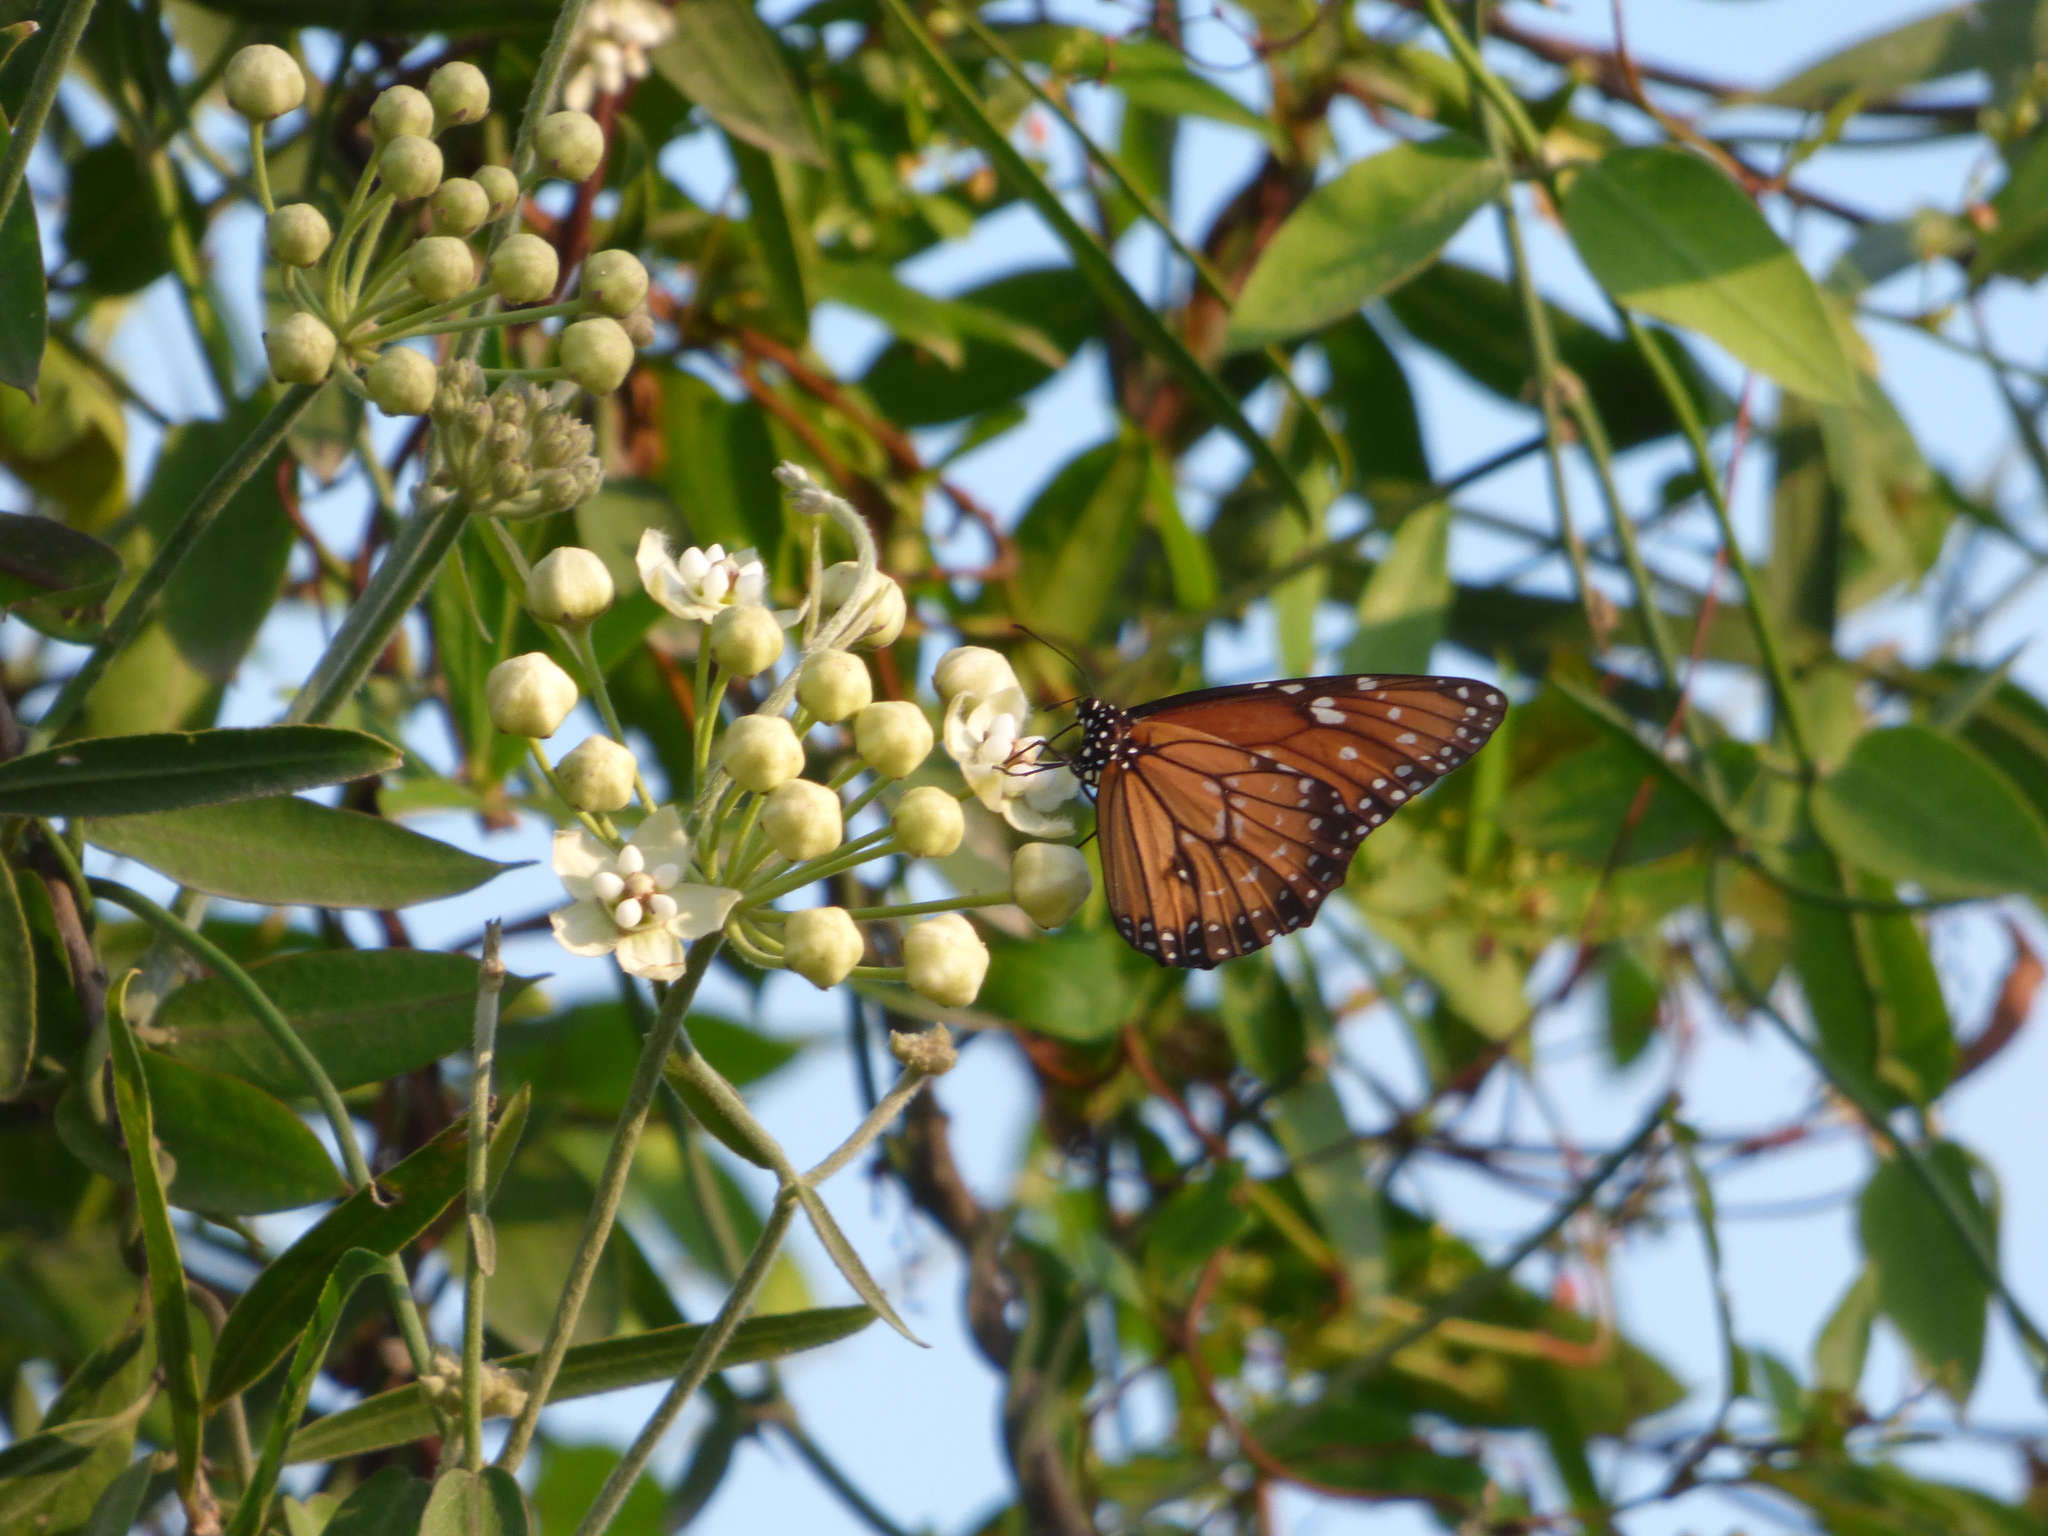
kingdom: Animalia
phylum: Arthropoda
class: Insecta
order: Lepidoptera
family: Nymphalidae
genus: Danaus
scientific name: Danaus eresimus
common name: Soldier
